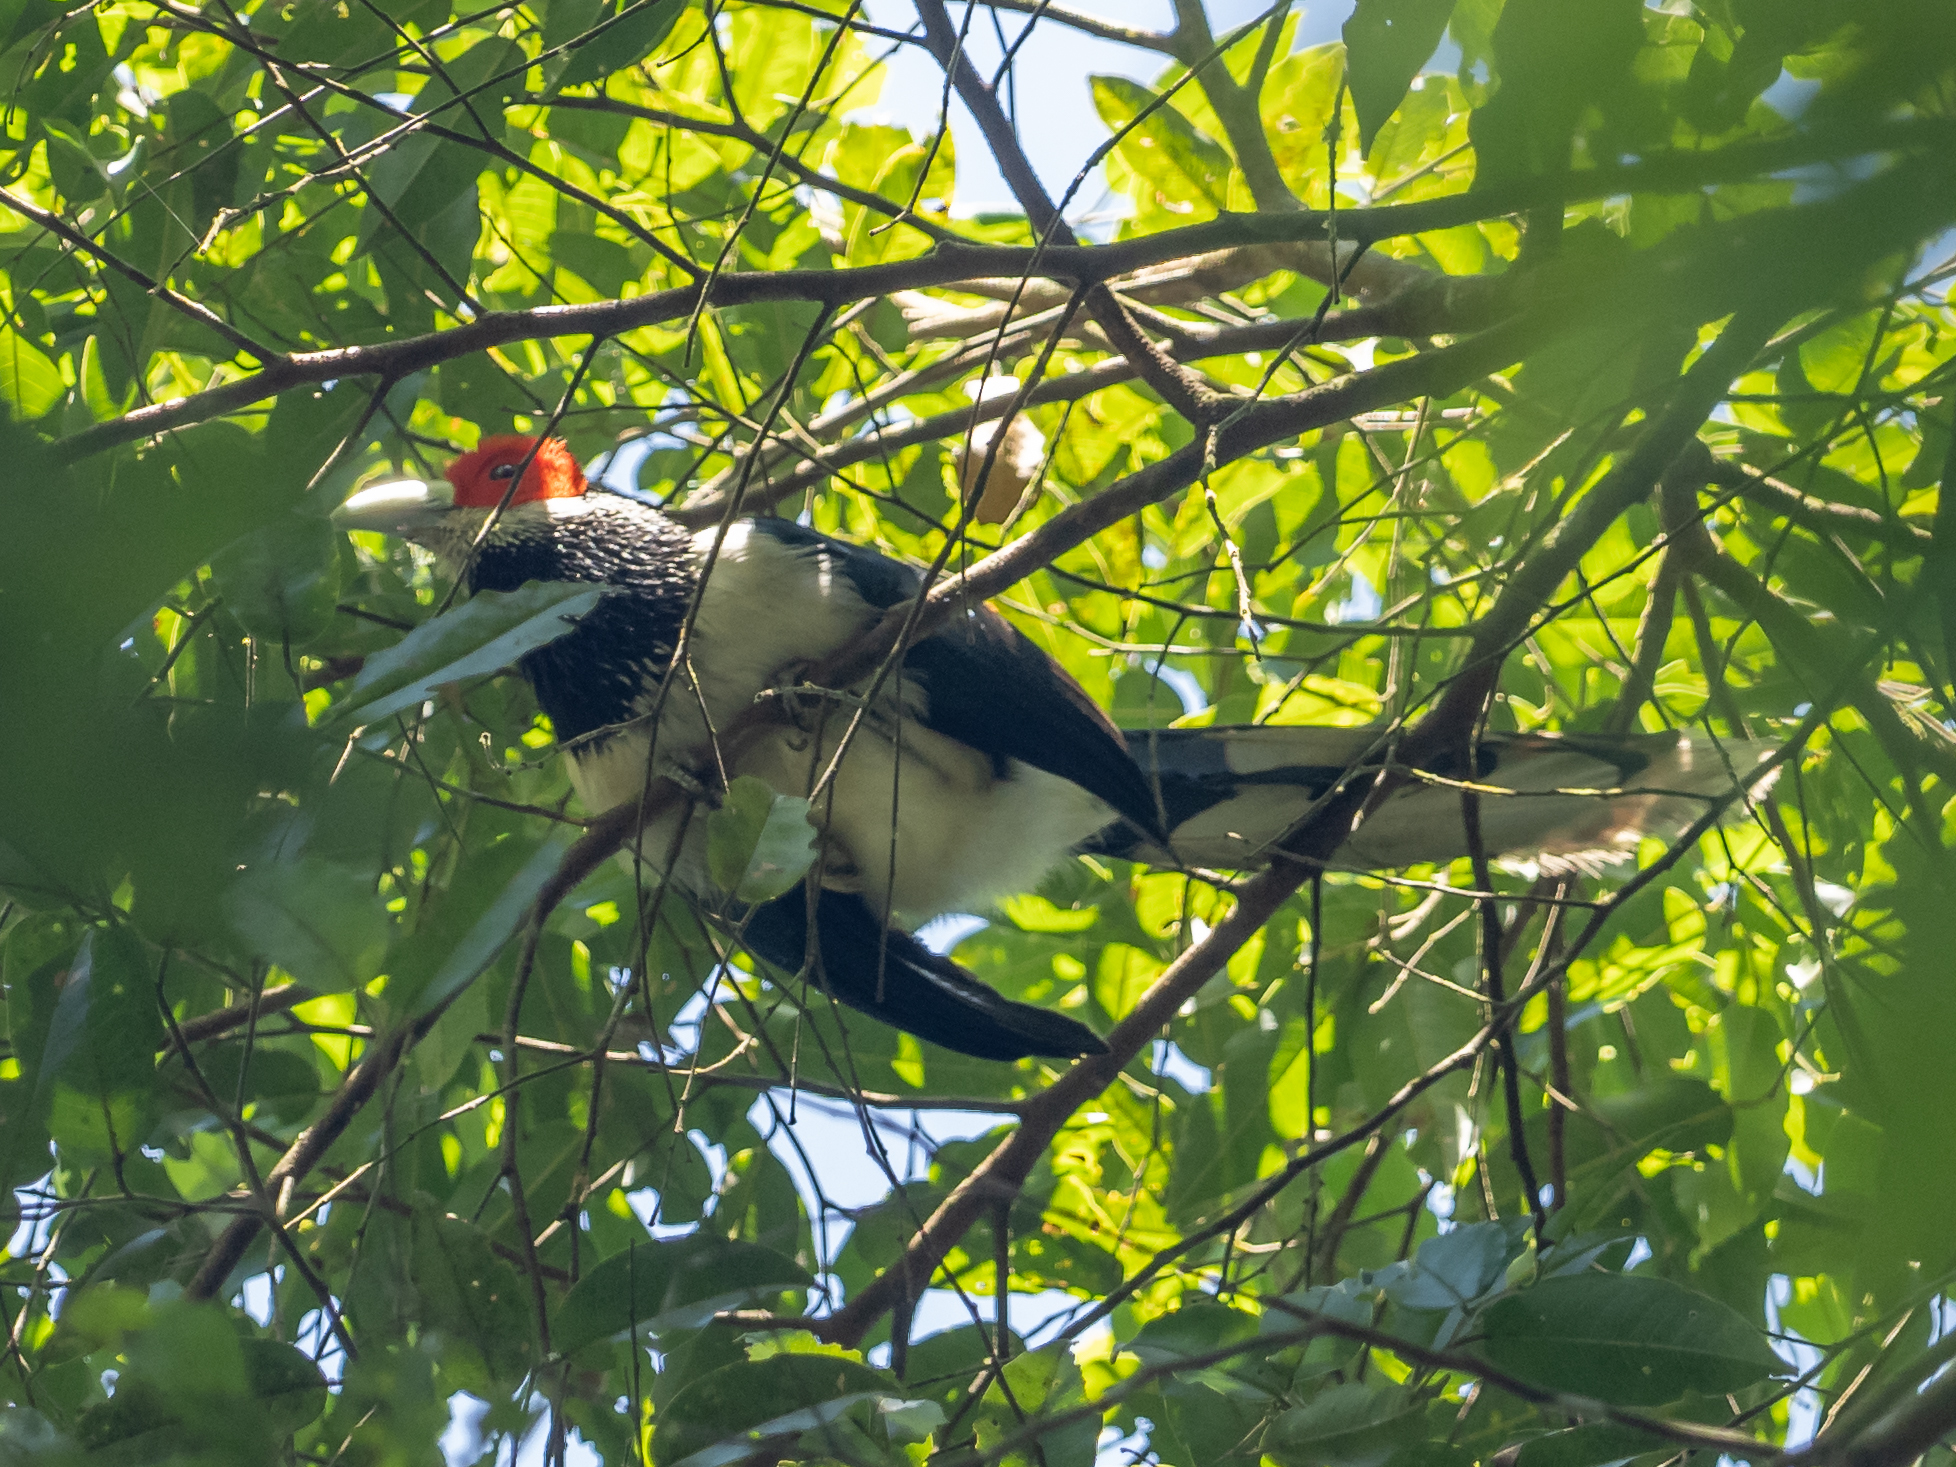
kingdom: Animalia
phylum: Chordata
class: Aves
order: Cuculiformes
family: Cuculidae
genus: Phaenicophaeus
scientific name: Phaenicophaeus pyrrhocephalus
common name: Red-faced malkoha
